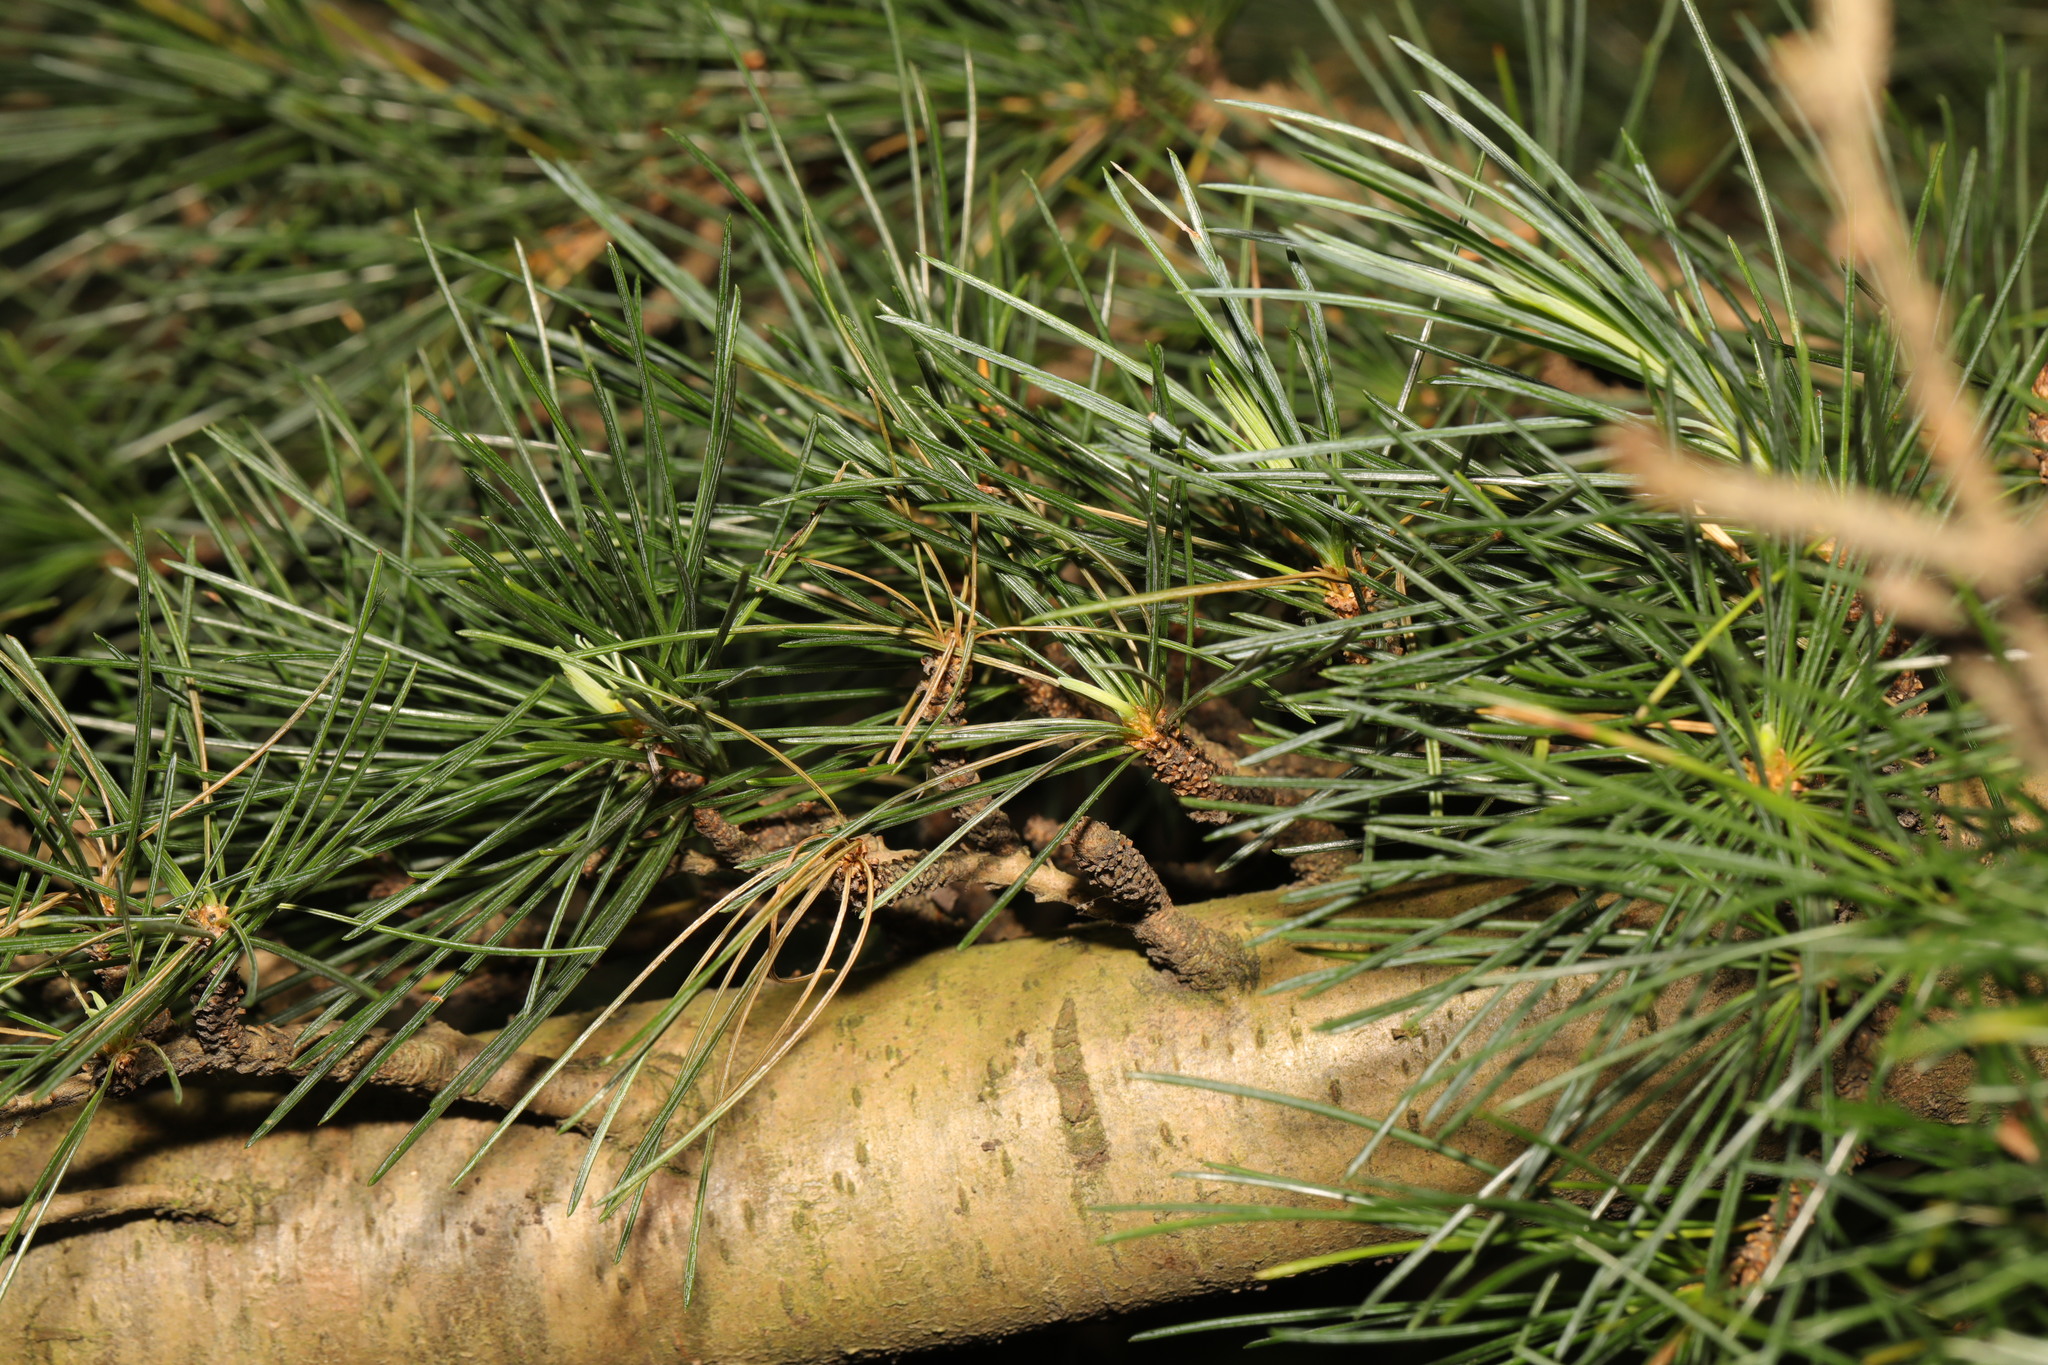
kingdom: Plantae
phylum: Tracheophyta
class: Pinopsida
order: Pinales
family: Pinaceae
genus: Larix
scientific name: Larix decidua
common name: European larch
